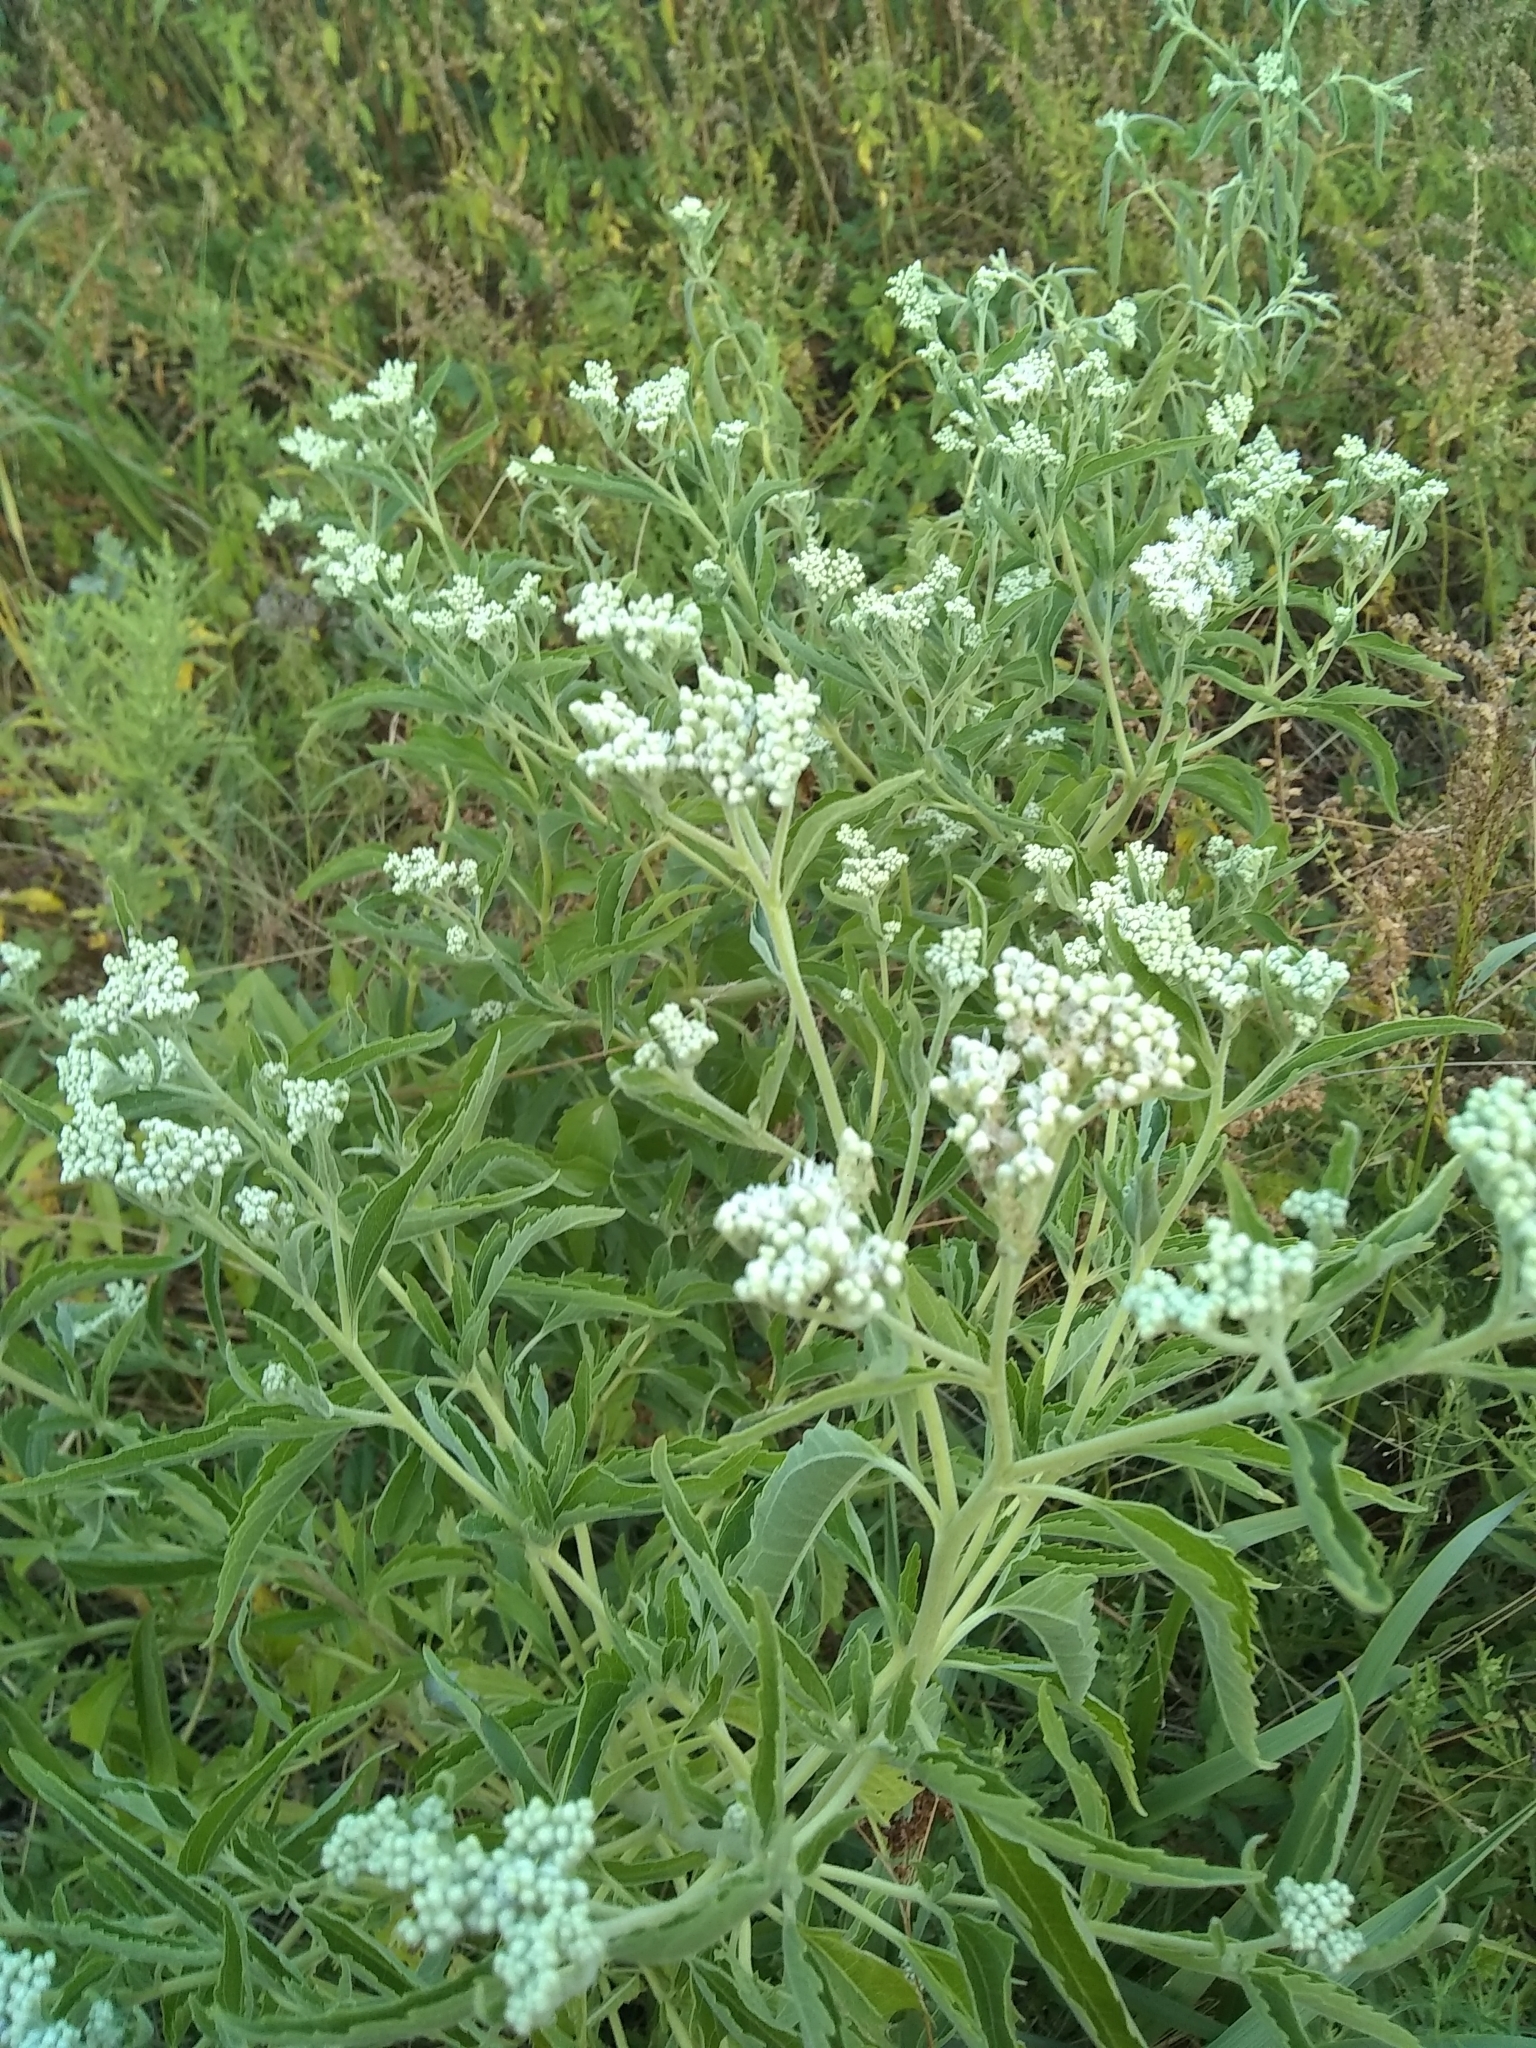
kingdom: Plantae
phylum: Tracheophyta
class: Magnoliopsida
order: Asterales
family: Asteraceae
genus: Eupatorium
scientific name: Eupatorium serotinum
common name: Late boneset
